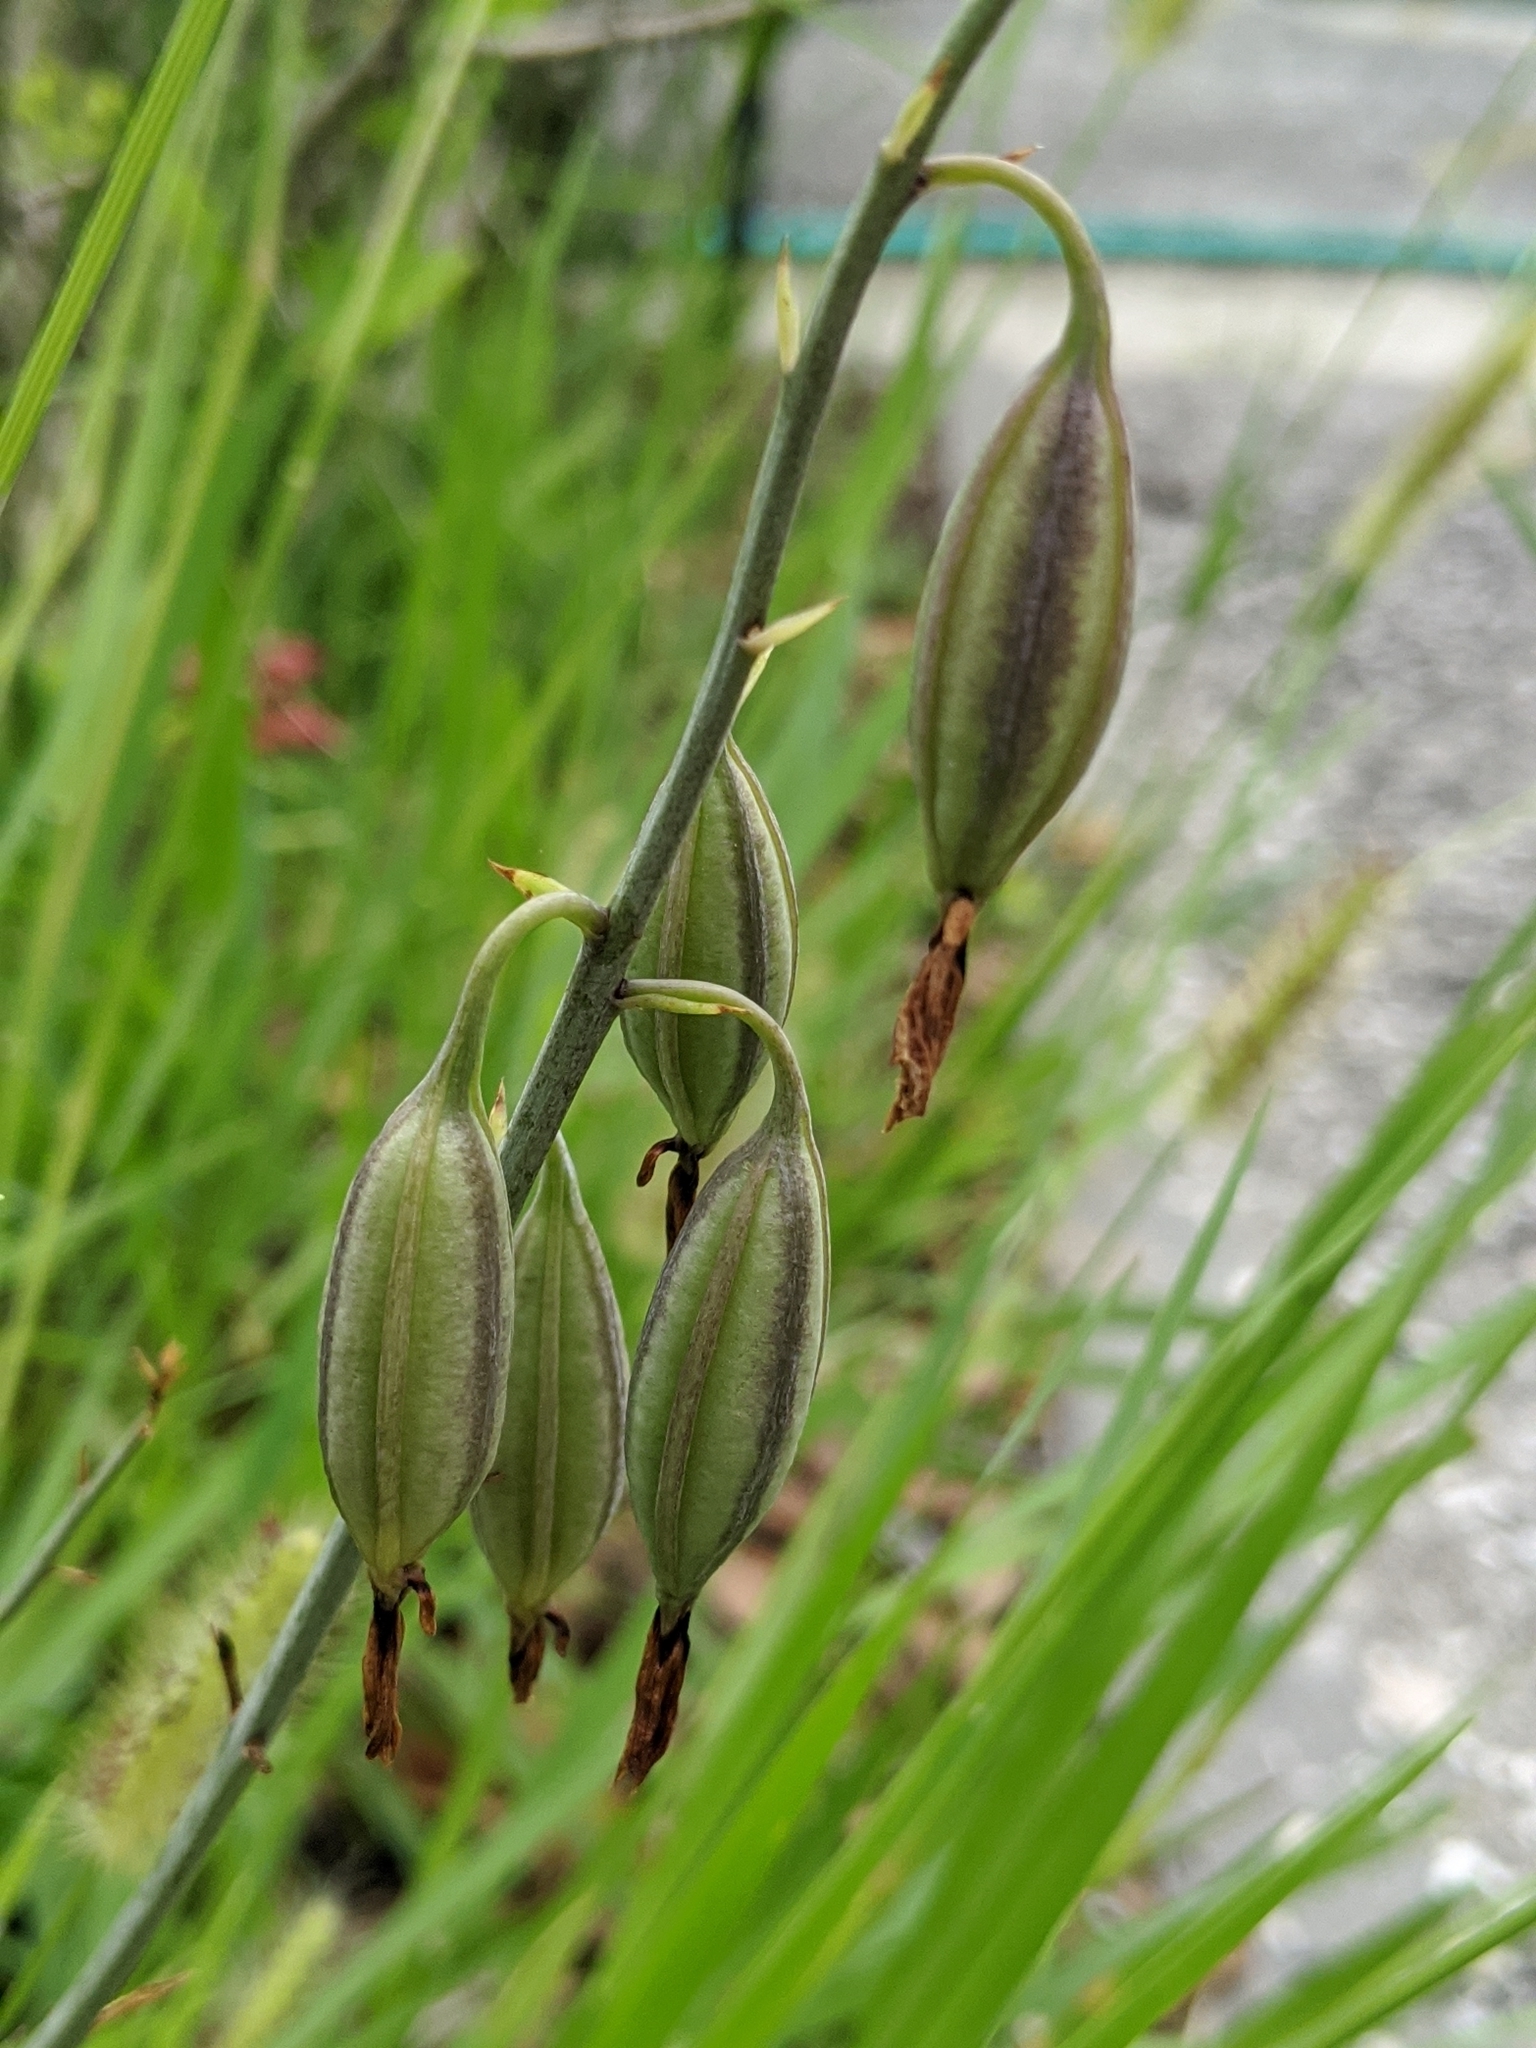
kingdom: Plantae
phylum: Tracheophyta
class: Liliopsida
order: Asparagales
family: Orchidaceae
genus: Eulophia
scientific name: Eulophia graminea
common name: Orchid
